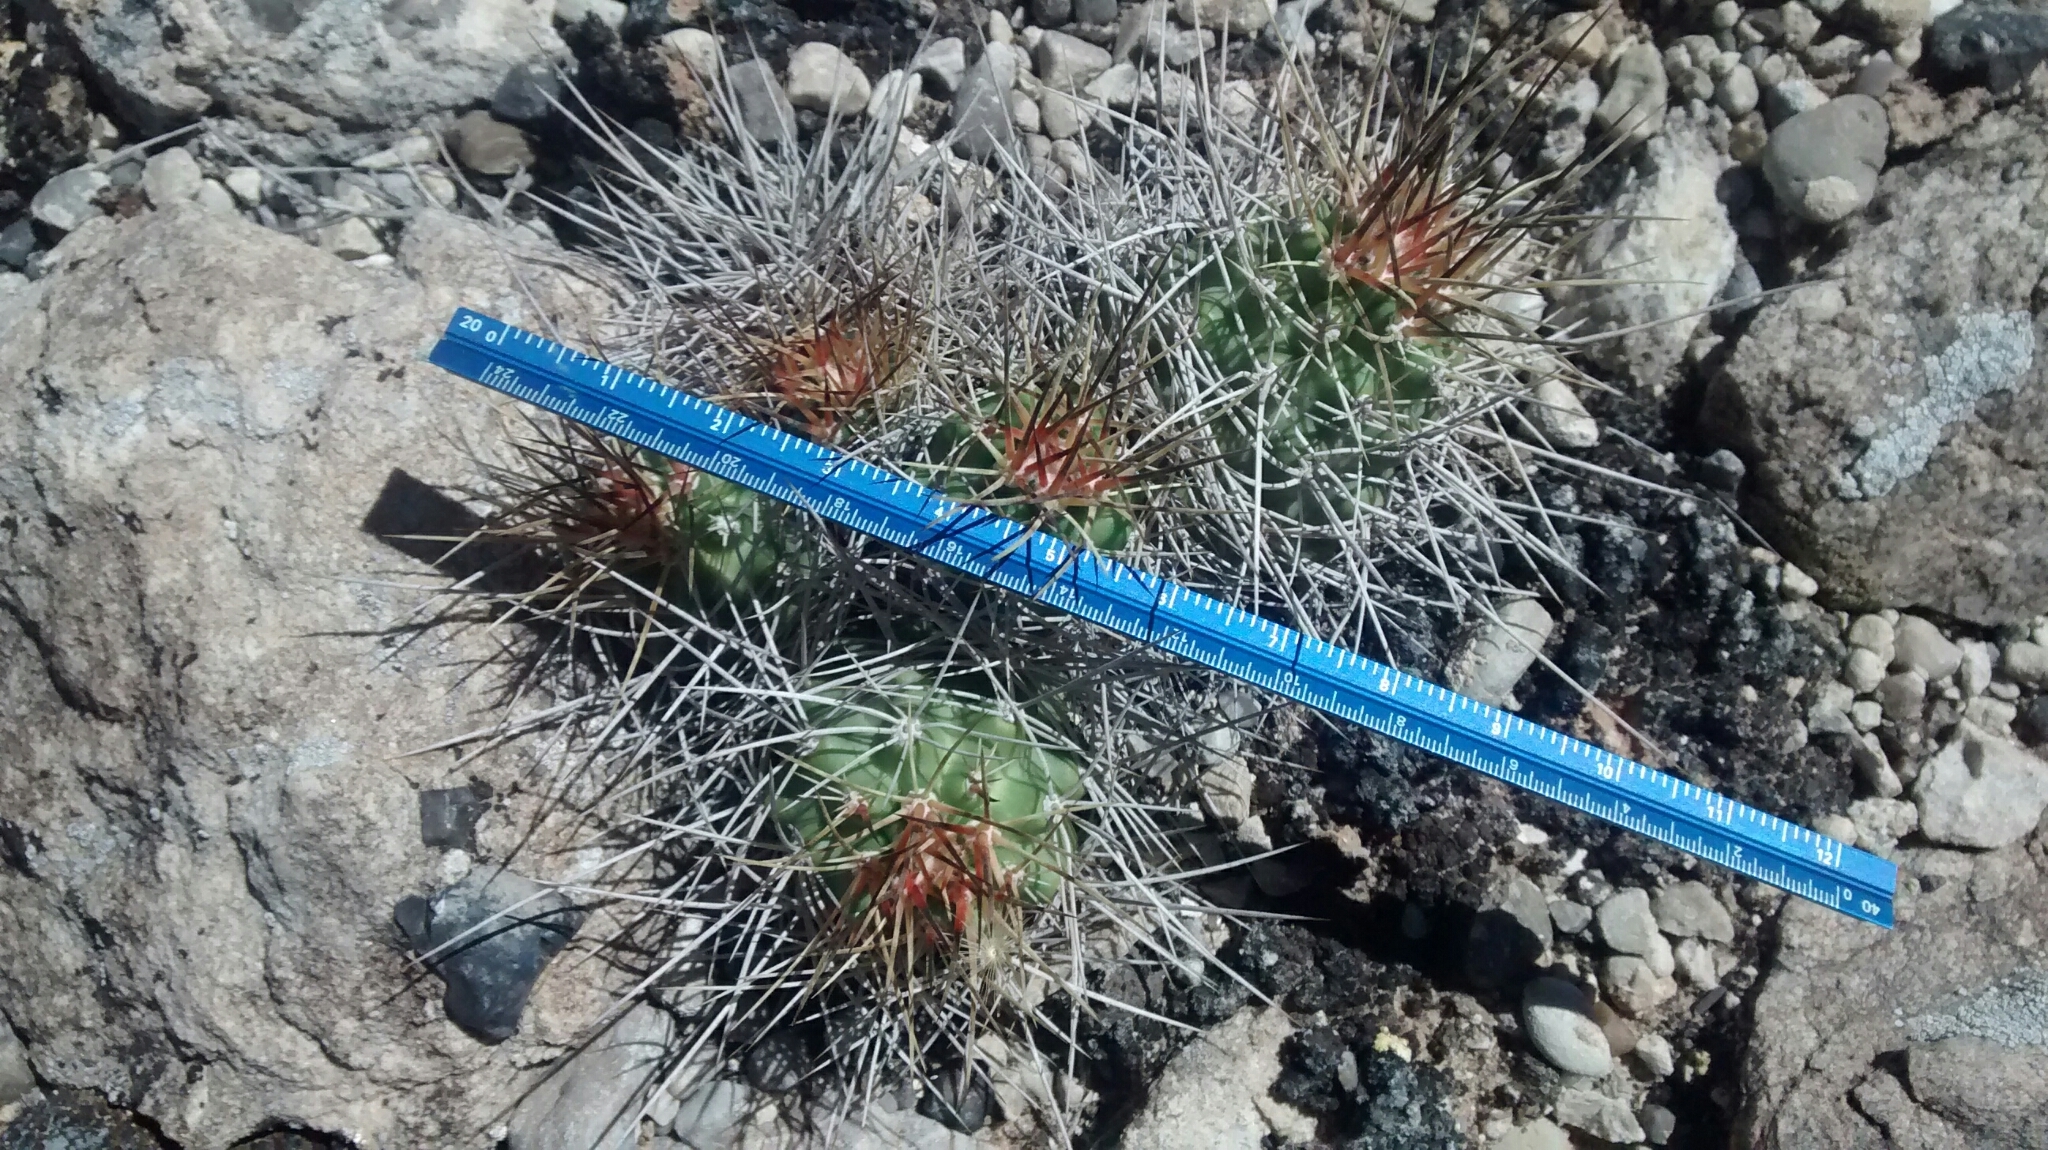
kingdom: Plantae
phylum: Tracheophyta
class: Magnoliopsida
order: Caryophyllales
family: Cactaceae
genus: Echinocereus
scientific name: Echinocereus triglochidiatus
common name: Claretcup hedgehog
